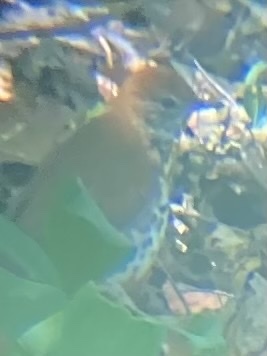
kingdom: Animalia
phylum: Chordata
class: Aves
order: Passeriformes
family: Turdidae
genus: Hylocichla
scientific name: Hylocichla mustelina
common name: Wood thrush
